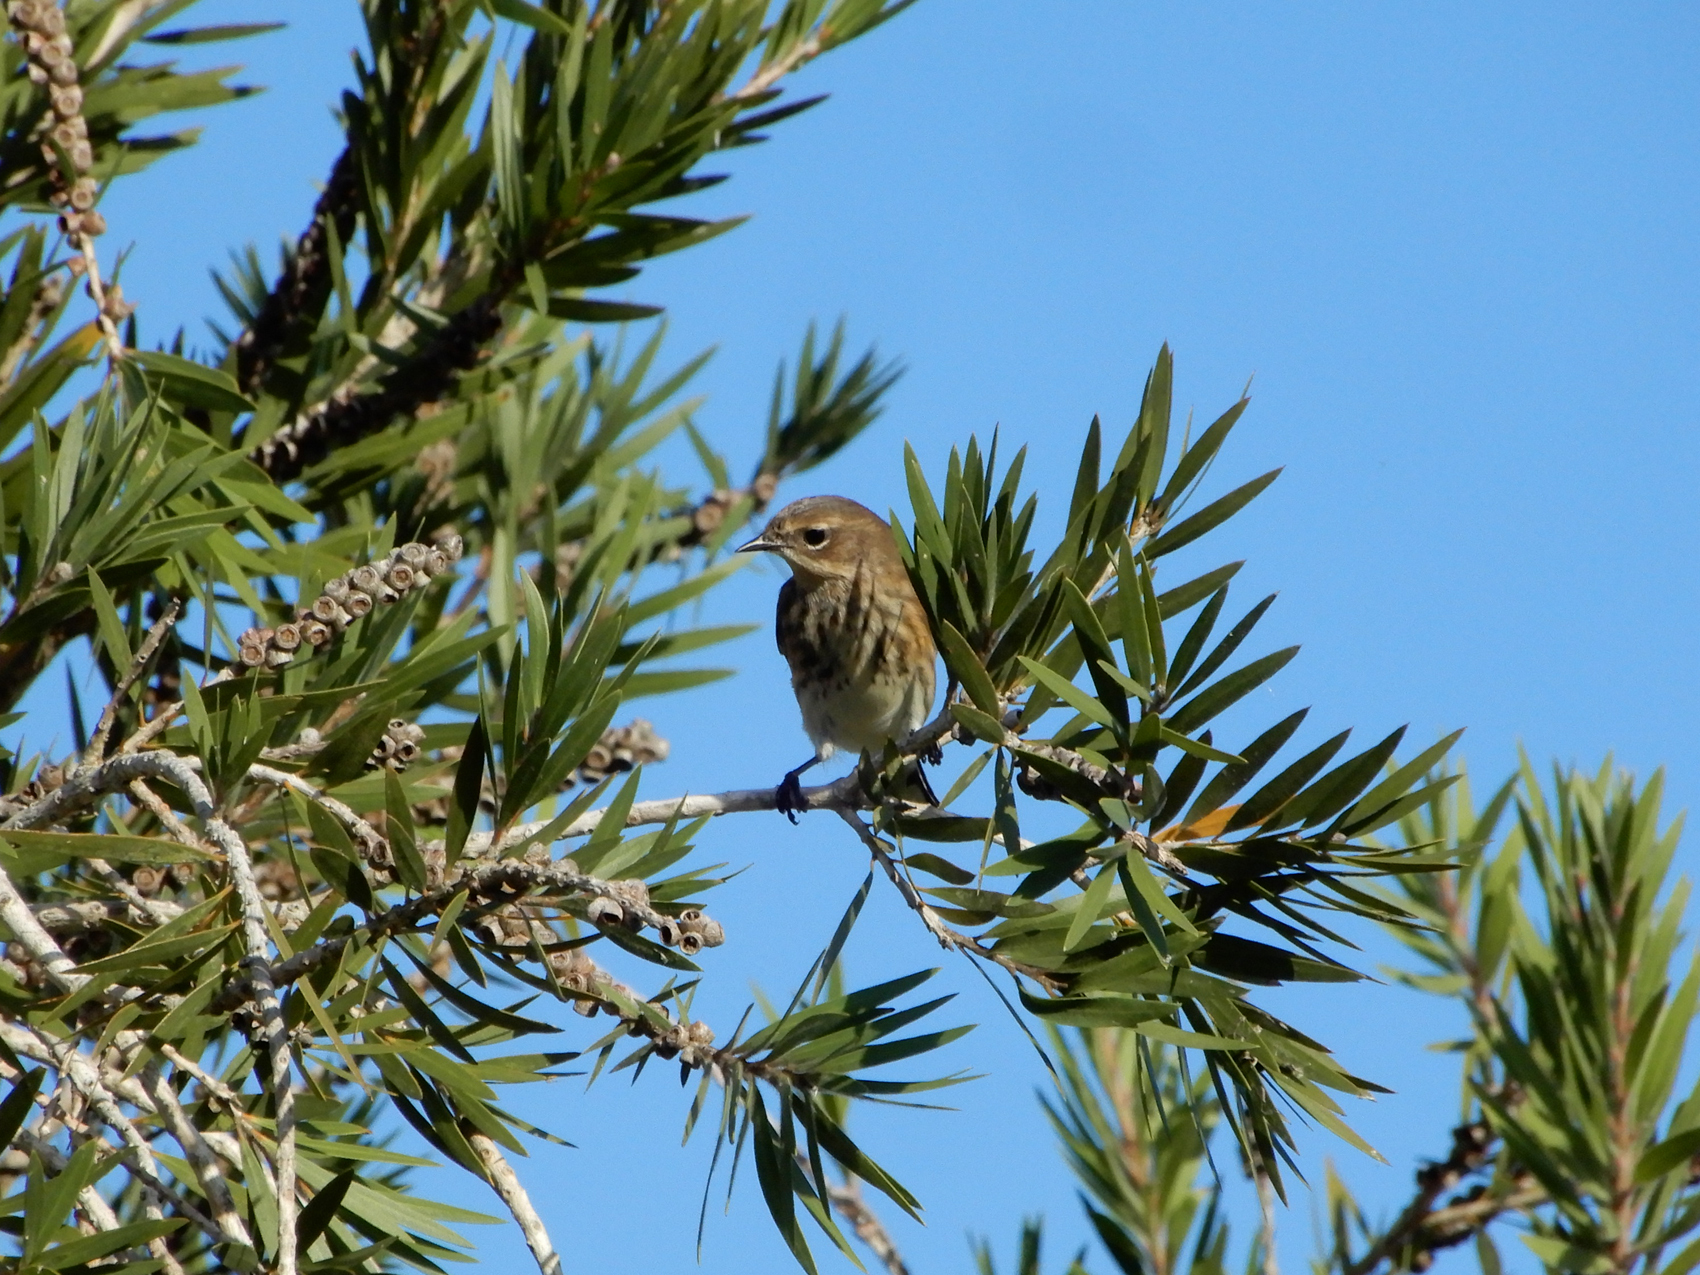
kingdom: Animalia
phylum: Chordata
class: Aves
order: Passeriformes
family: Parulidae
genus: Setophaga
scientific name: Setophaga coronata
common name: Myrtle warbler
